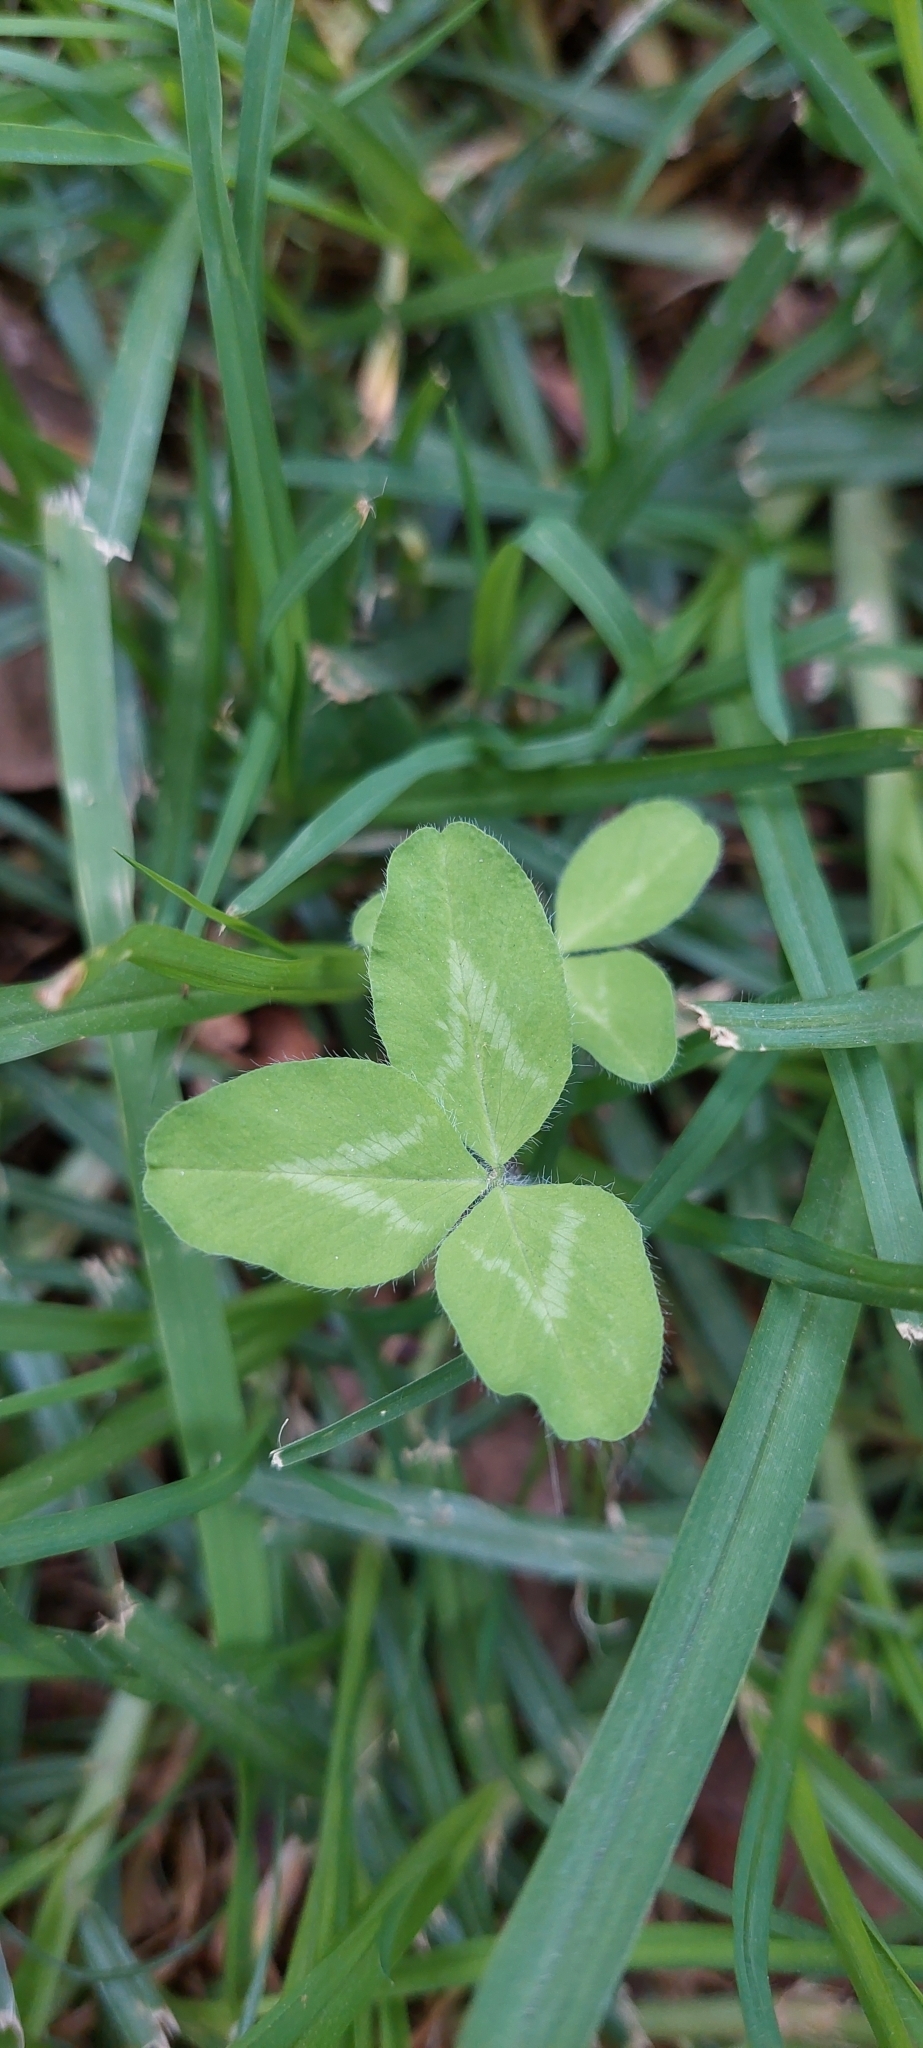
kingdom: Plantae
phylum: Tracheophyta
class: Magnoliopsida
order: Fabales
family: Fabaceae
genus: Trifolium
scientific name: Trifolium pratense
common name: Red clover
